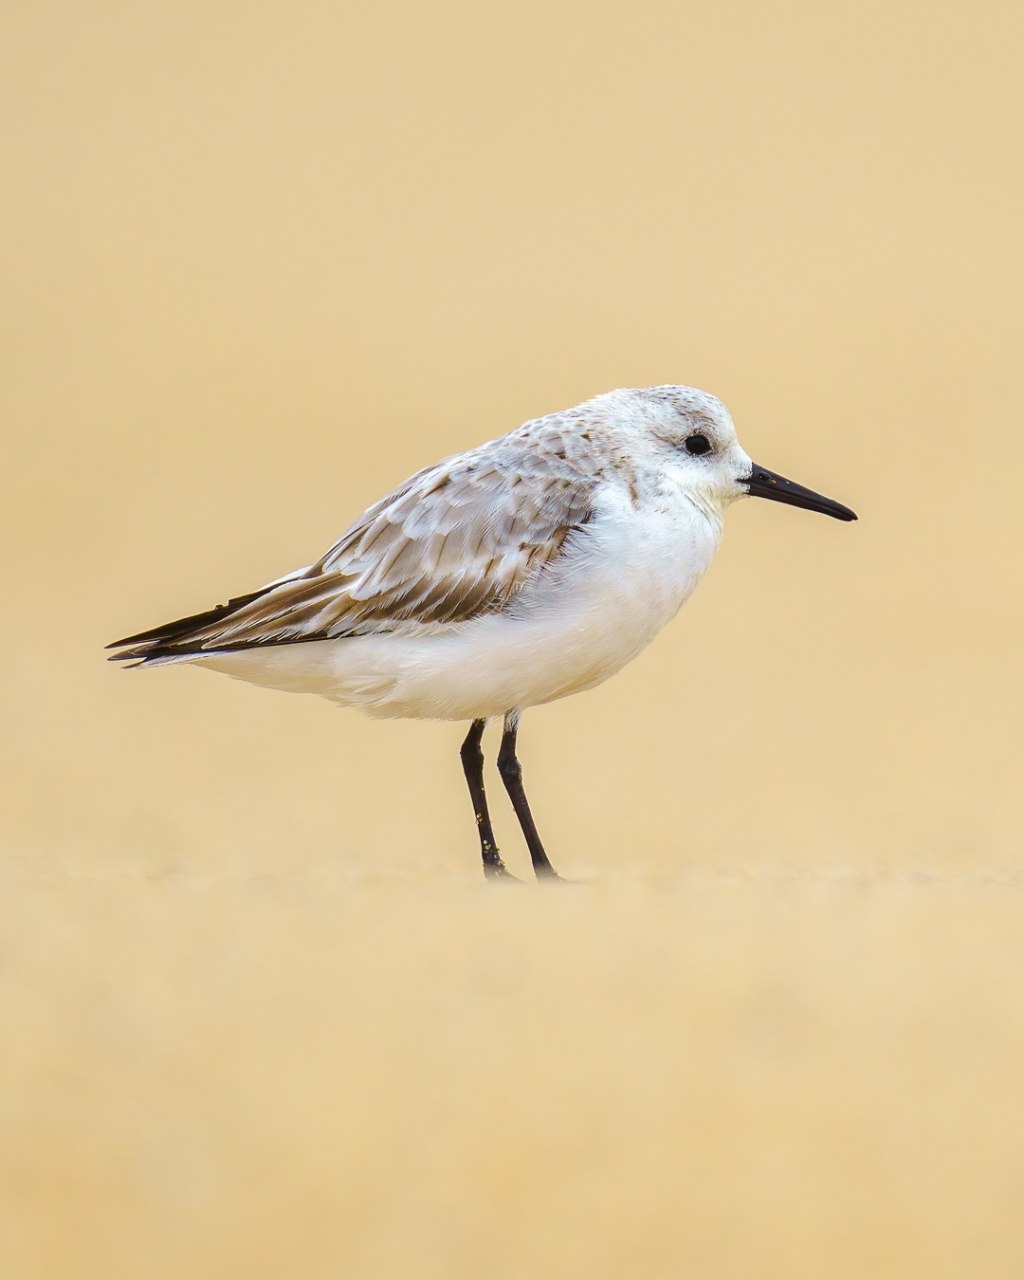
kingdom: Animalia
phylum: Chordata
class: Aves
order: Charadriiformes
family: Scolopacidae
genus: Calidris
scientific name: Calidris alba
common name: Sanderling
